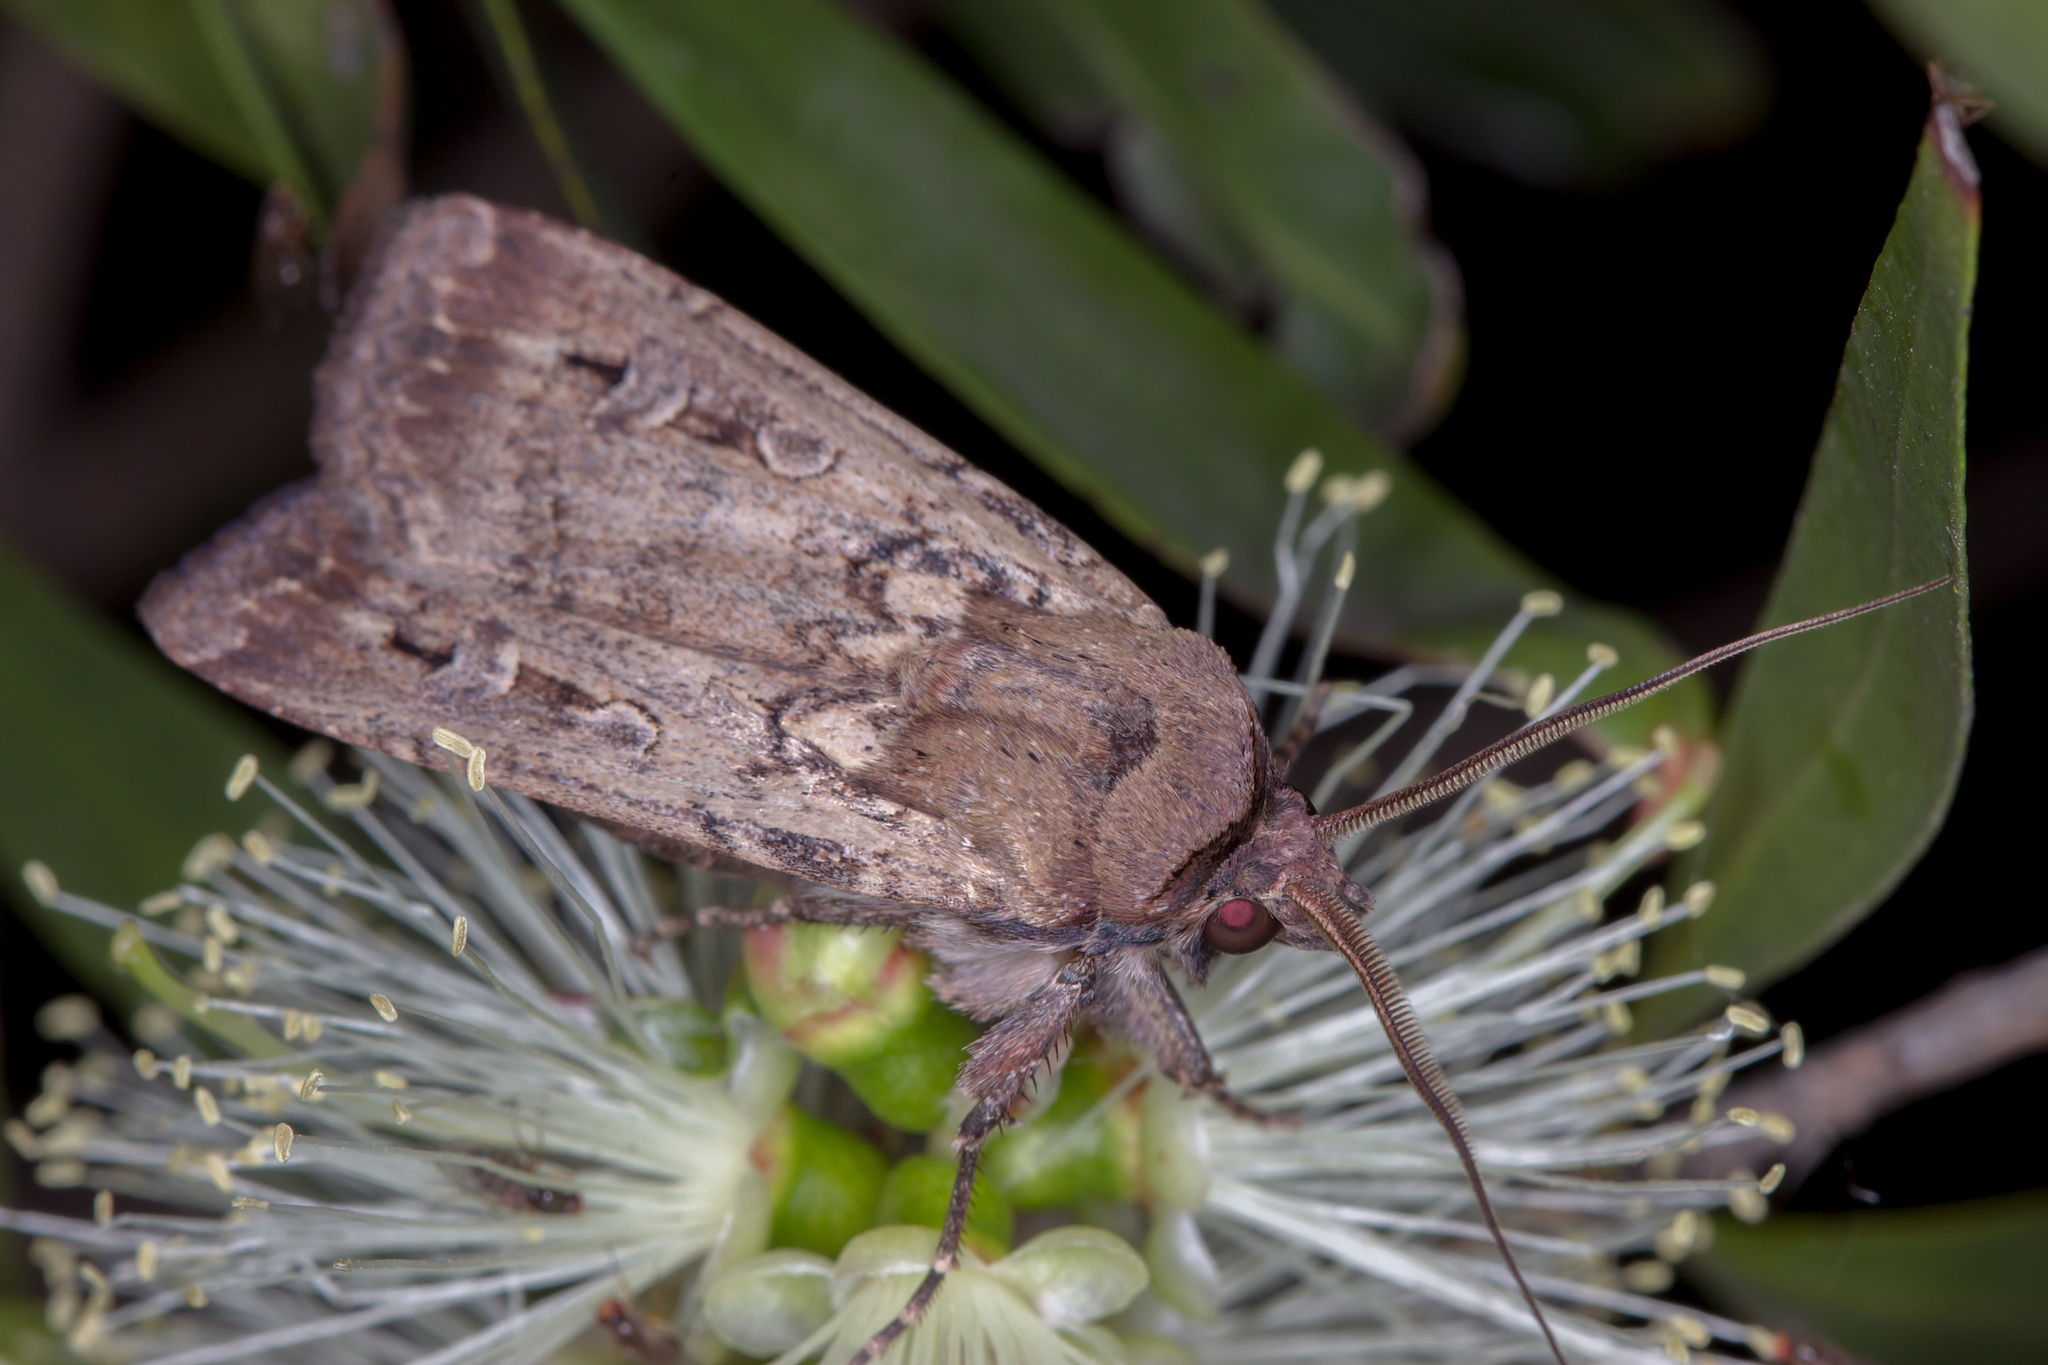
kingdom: Animalia
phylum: Arthropoda
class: Insecta
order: Lepidoptera
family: Noctuidae
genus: Agrotis
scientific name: Agrotis infusa
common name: Bogong moth
